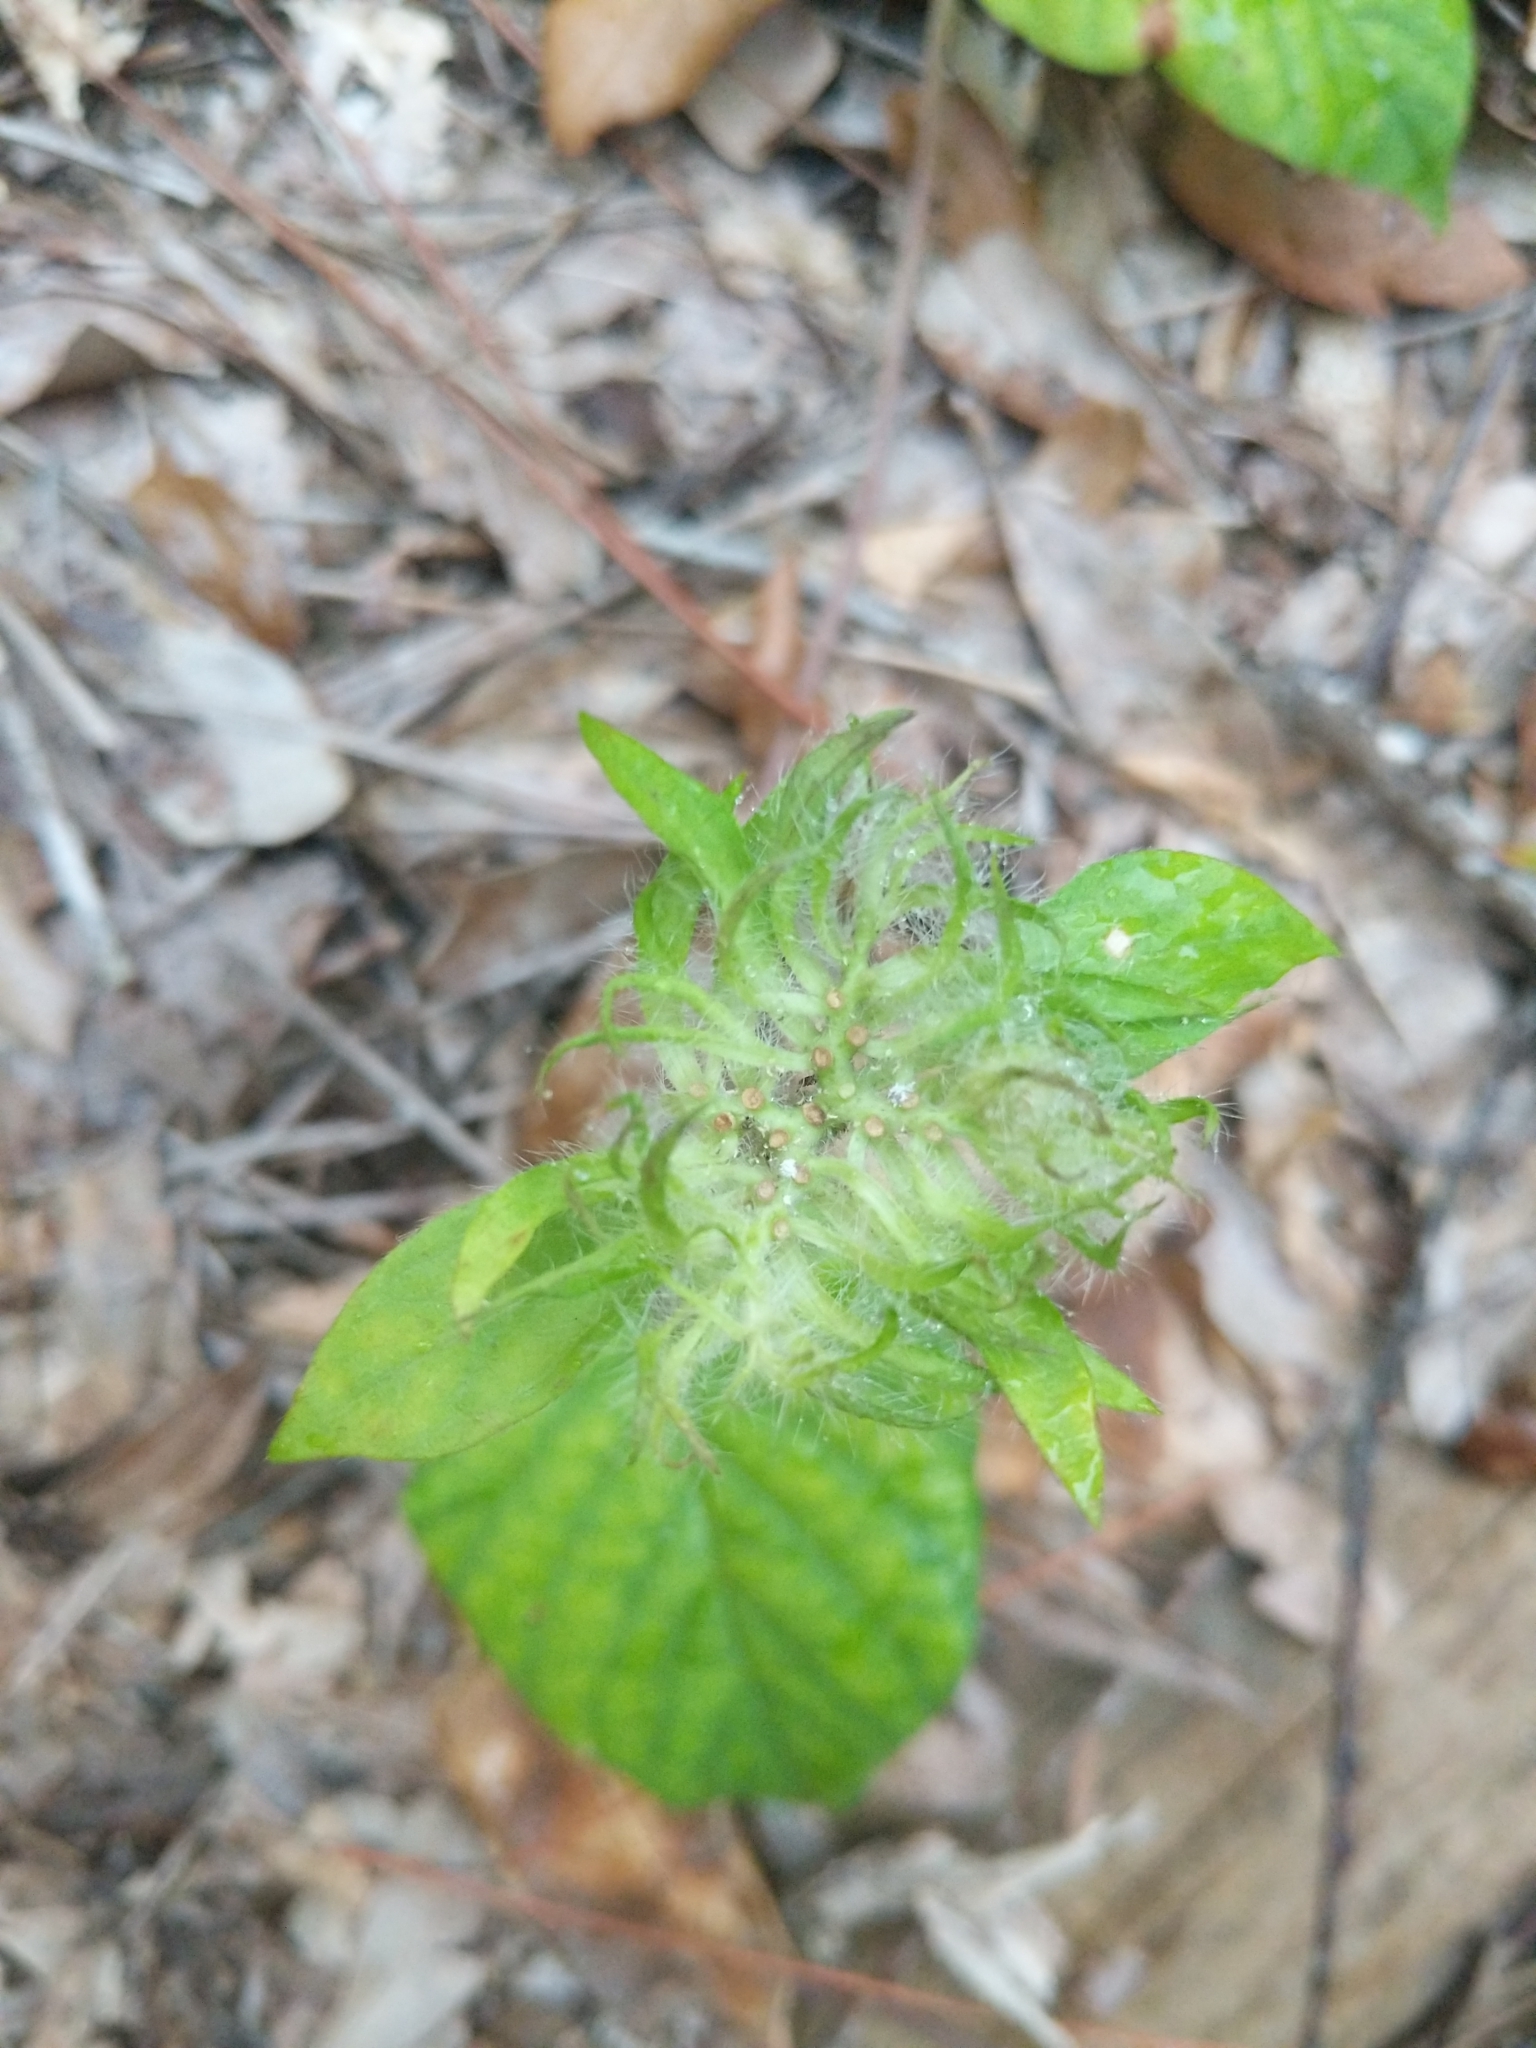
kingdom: Plantae
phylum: Tracheophyta
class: Magnoliopsida
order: Solanales
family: Convolvulaceae
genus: Jacquemontia
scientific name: Jacquemontia tamnifolia
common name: Hairy clustervine
